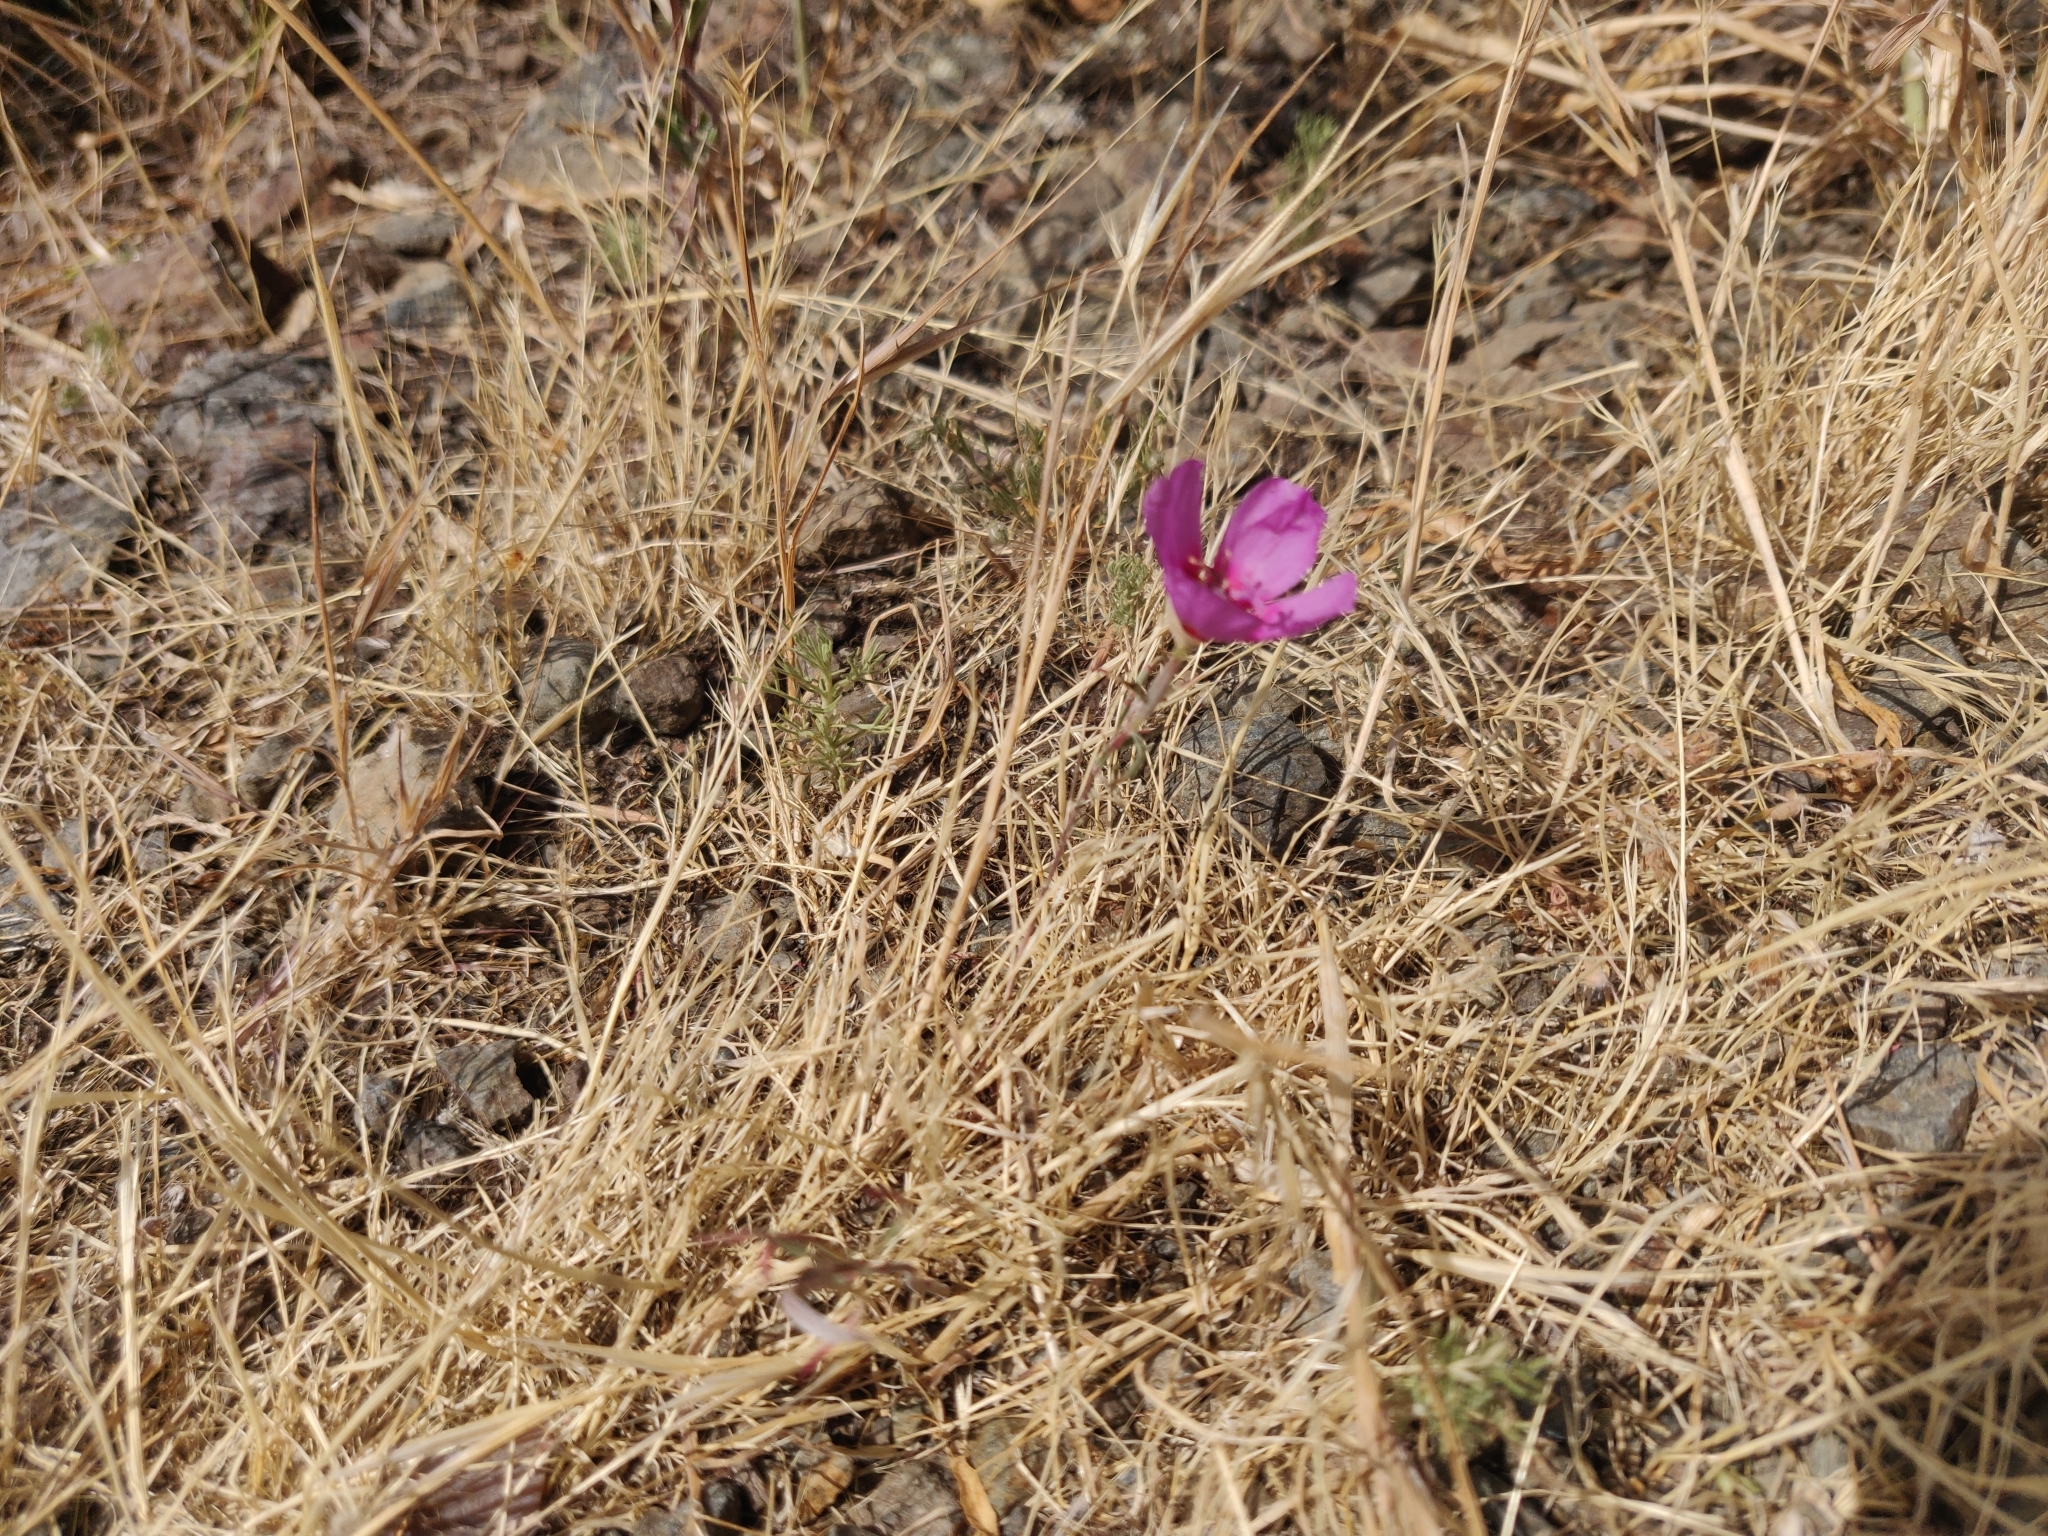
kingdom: Plantae
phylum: Tracheophyta
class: Magnoliopsida
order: Myrtales
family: Onagraceae
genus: Clarkia
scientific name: Clarkia rubicunda
